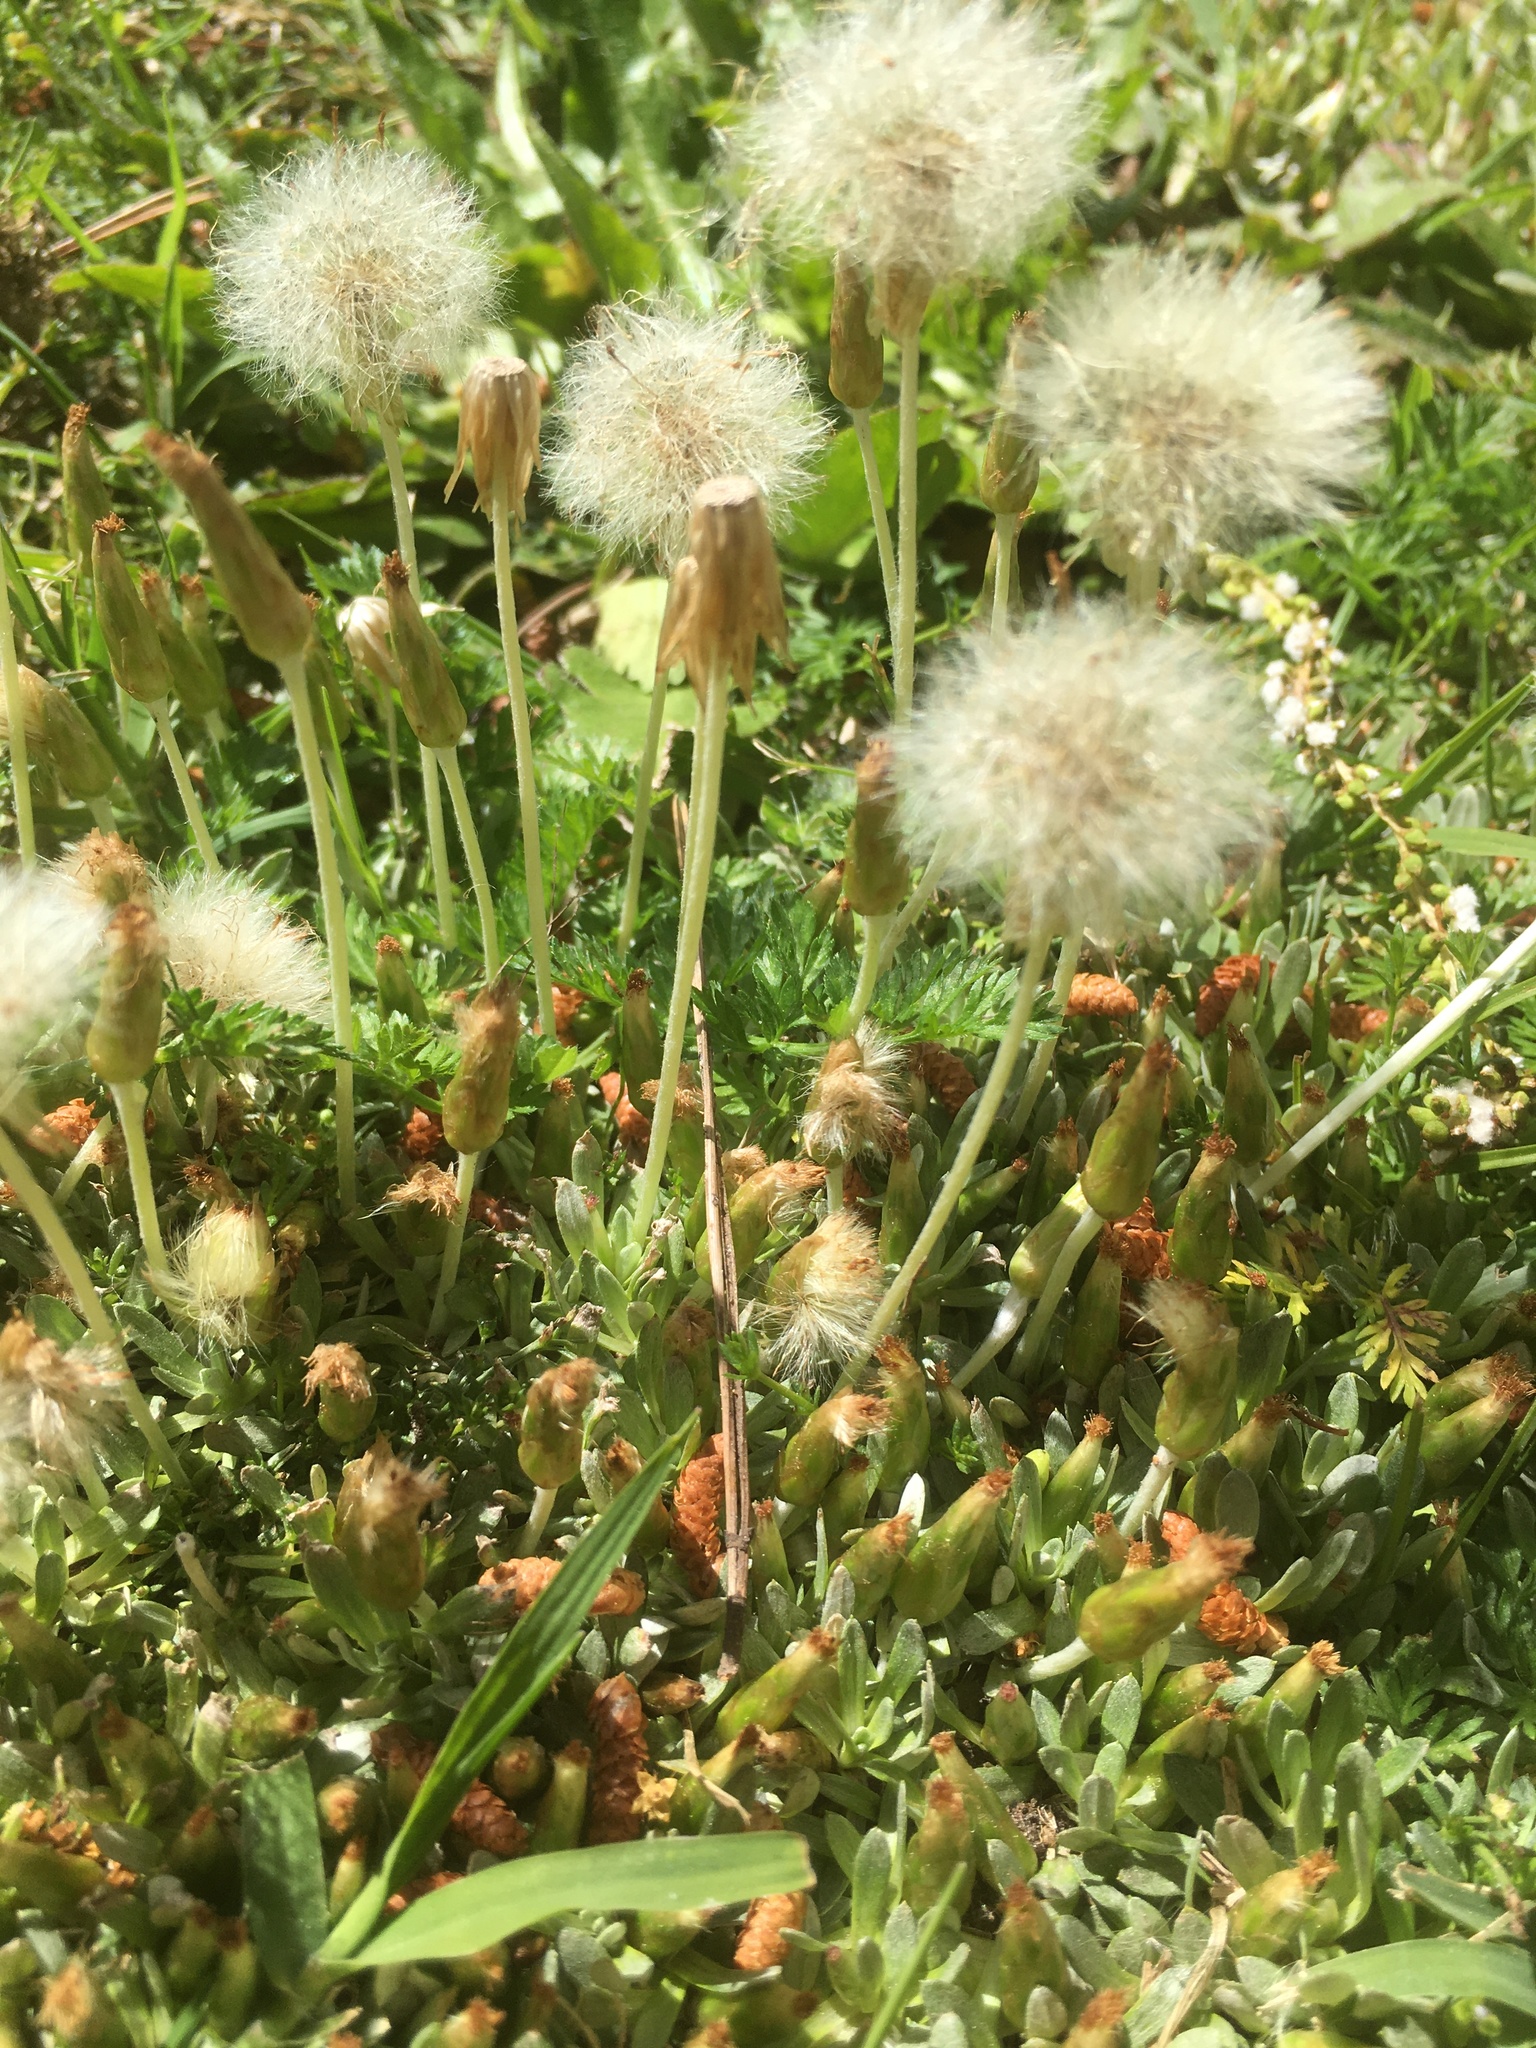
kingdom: Plantae
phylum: Tracheophyta
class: Magnoliopsida
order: Asterales
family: Asteraceae
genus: Chevreulia
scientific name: Chevreulia sarmentosa
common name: Sunflower
